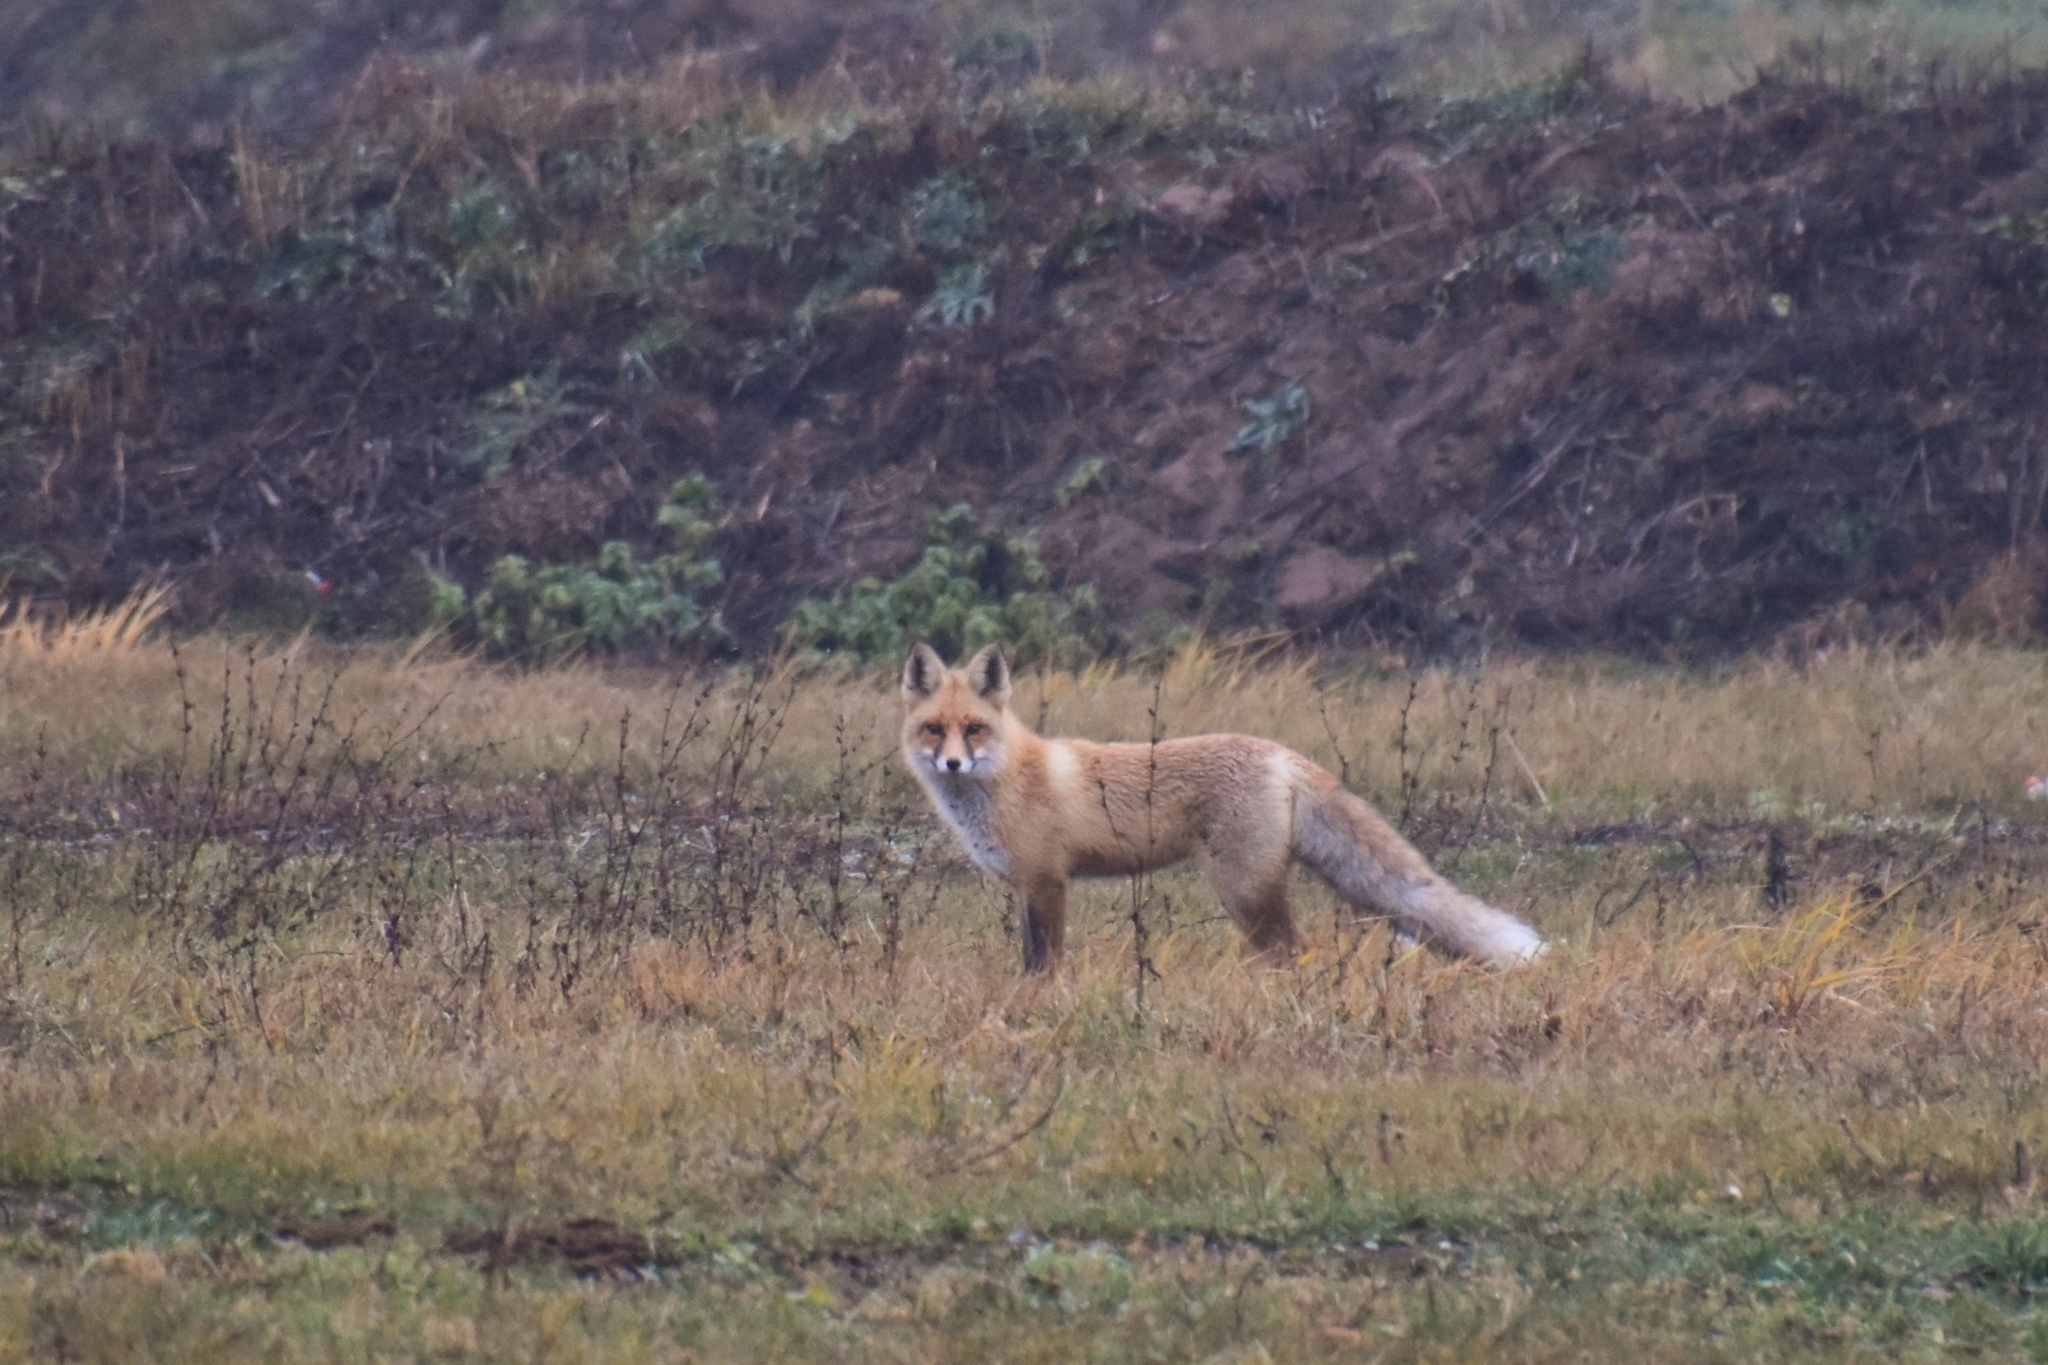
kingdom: Animalia
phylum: Chordata
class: Mammalia
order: Carnivora
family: Canidae
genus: Vulpes
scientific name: Vulpes vulpes
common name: Red fox
